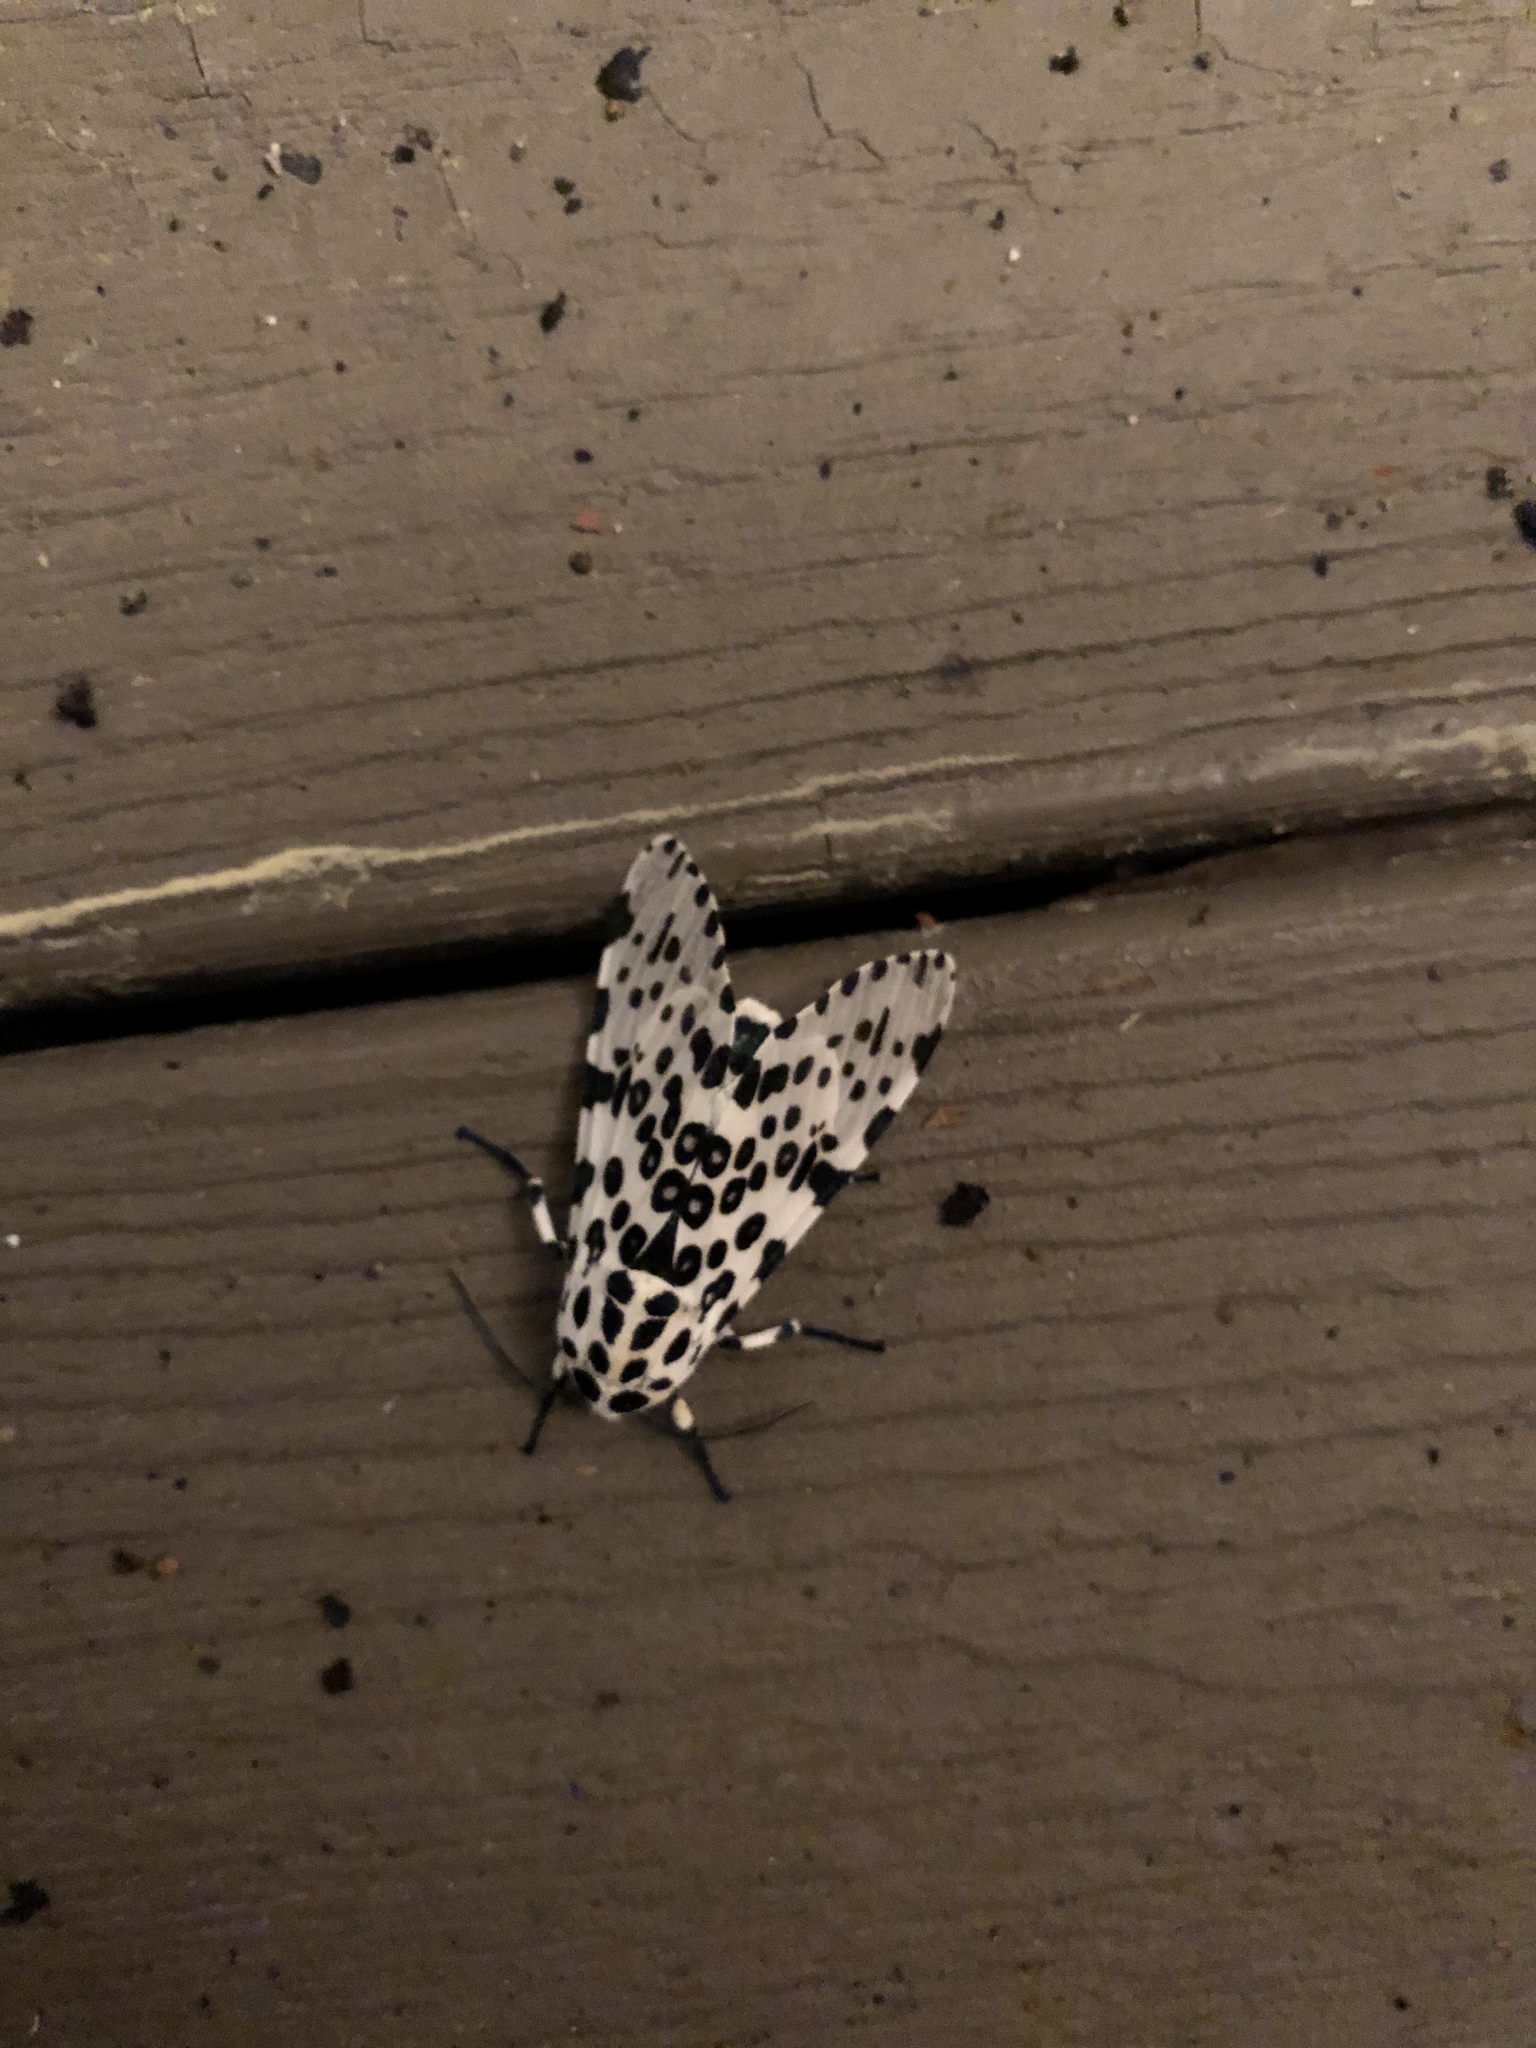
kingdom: Animalia
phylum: Arthropoda
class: Insecta
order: Lepidoptera
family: Erebidae
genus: Hypercompe
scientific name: Hypercompe scribonia
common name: Giant leopard moth
